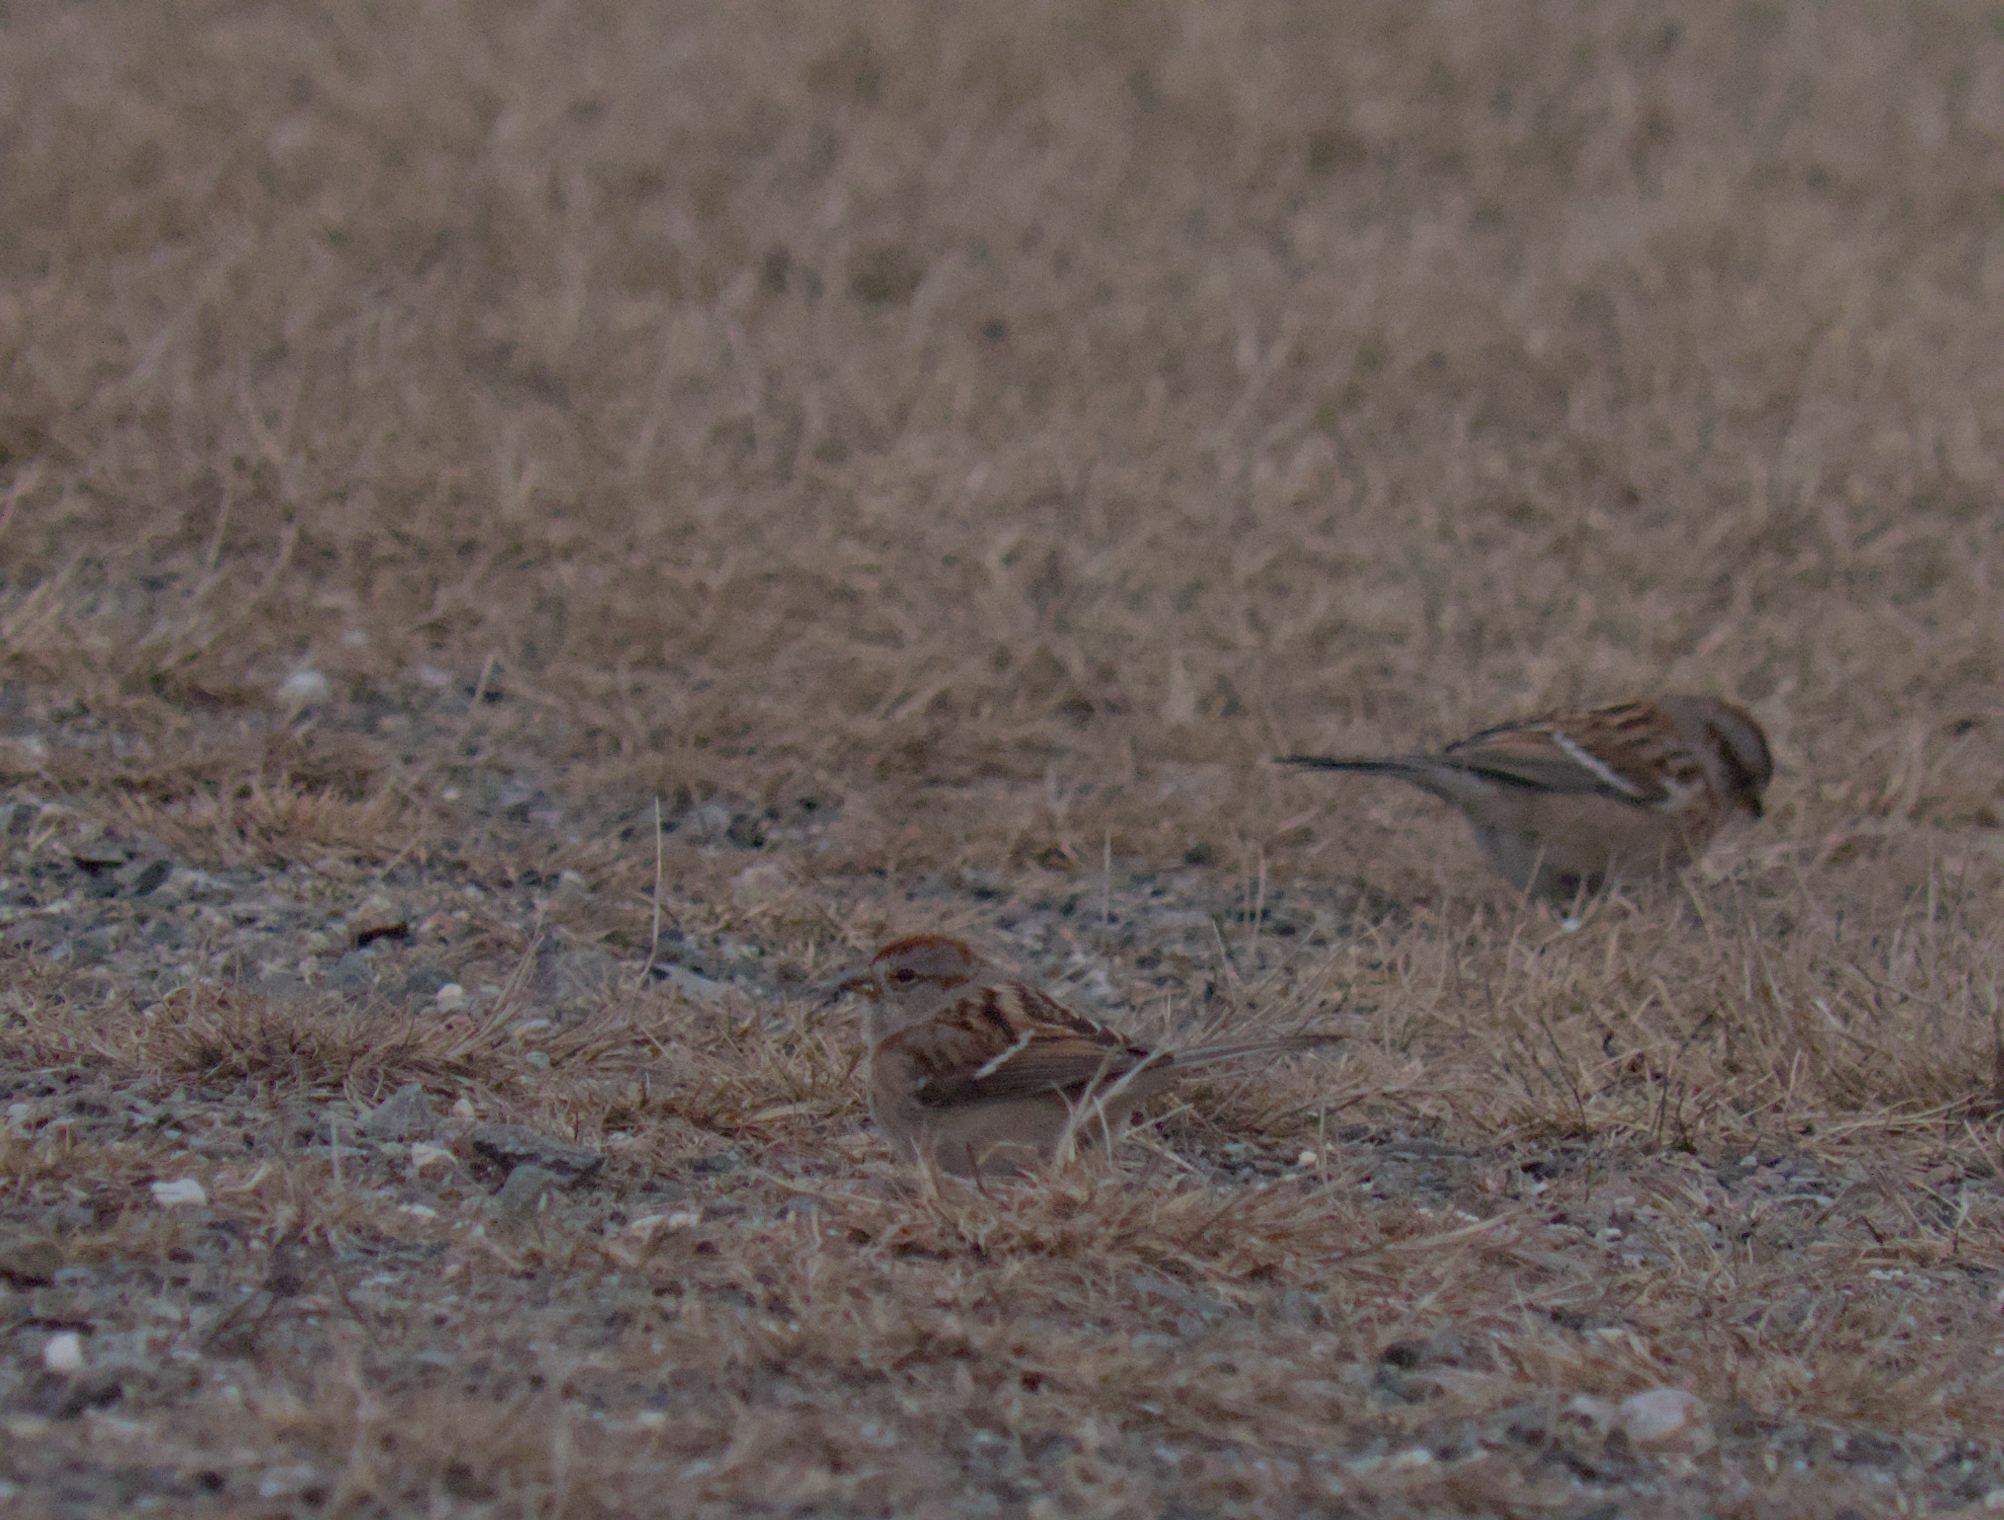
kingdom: Animalia
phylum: Chordata
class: Aves
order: Passeriformes
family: Passerellidae
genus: Spizelloides
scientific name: Spizelloides arborea
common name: American tree sparrow
